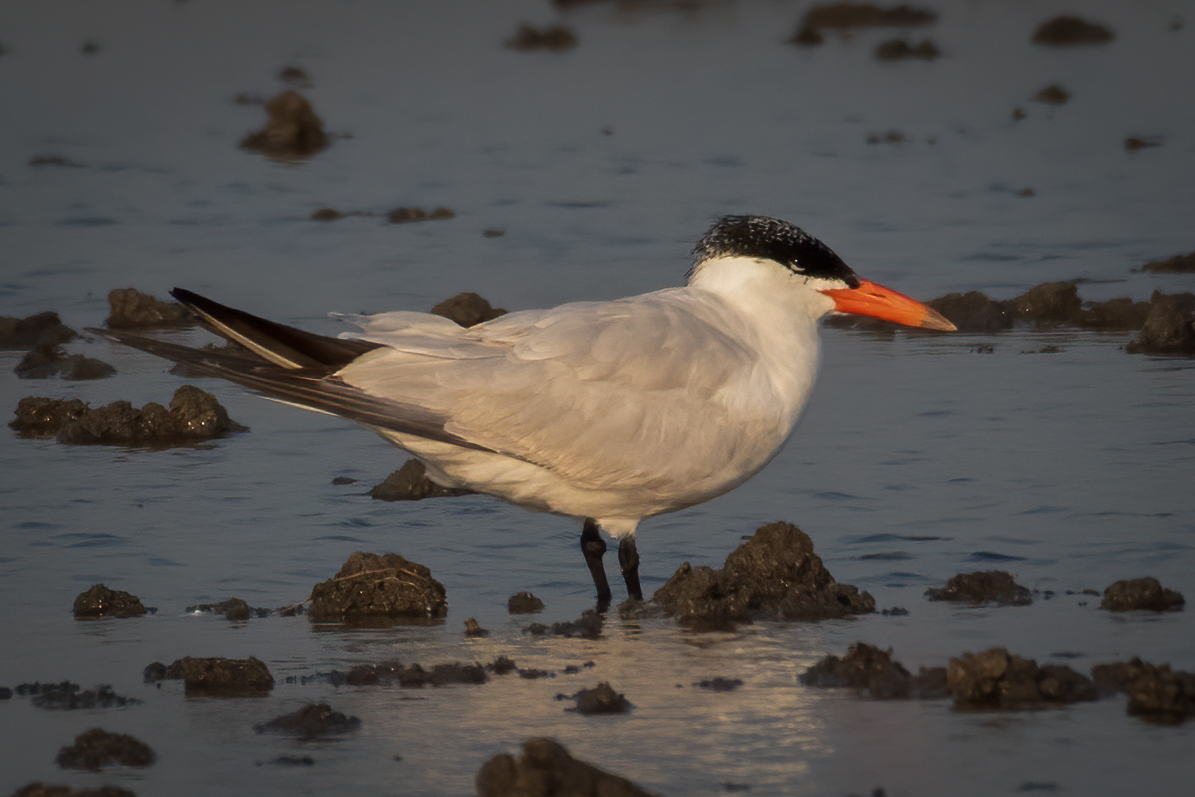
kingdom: Animalia
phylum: Chordata
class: Aves
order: Charadriiformes
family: Laridae
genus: Hydroprogne
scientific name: Hydroprogne caspia
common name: Caspian tern
